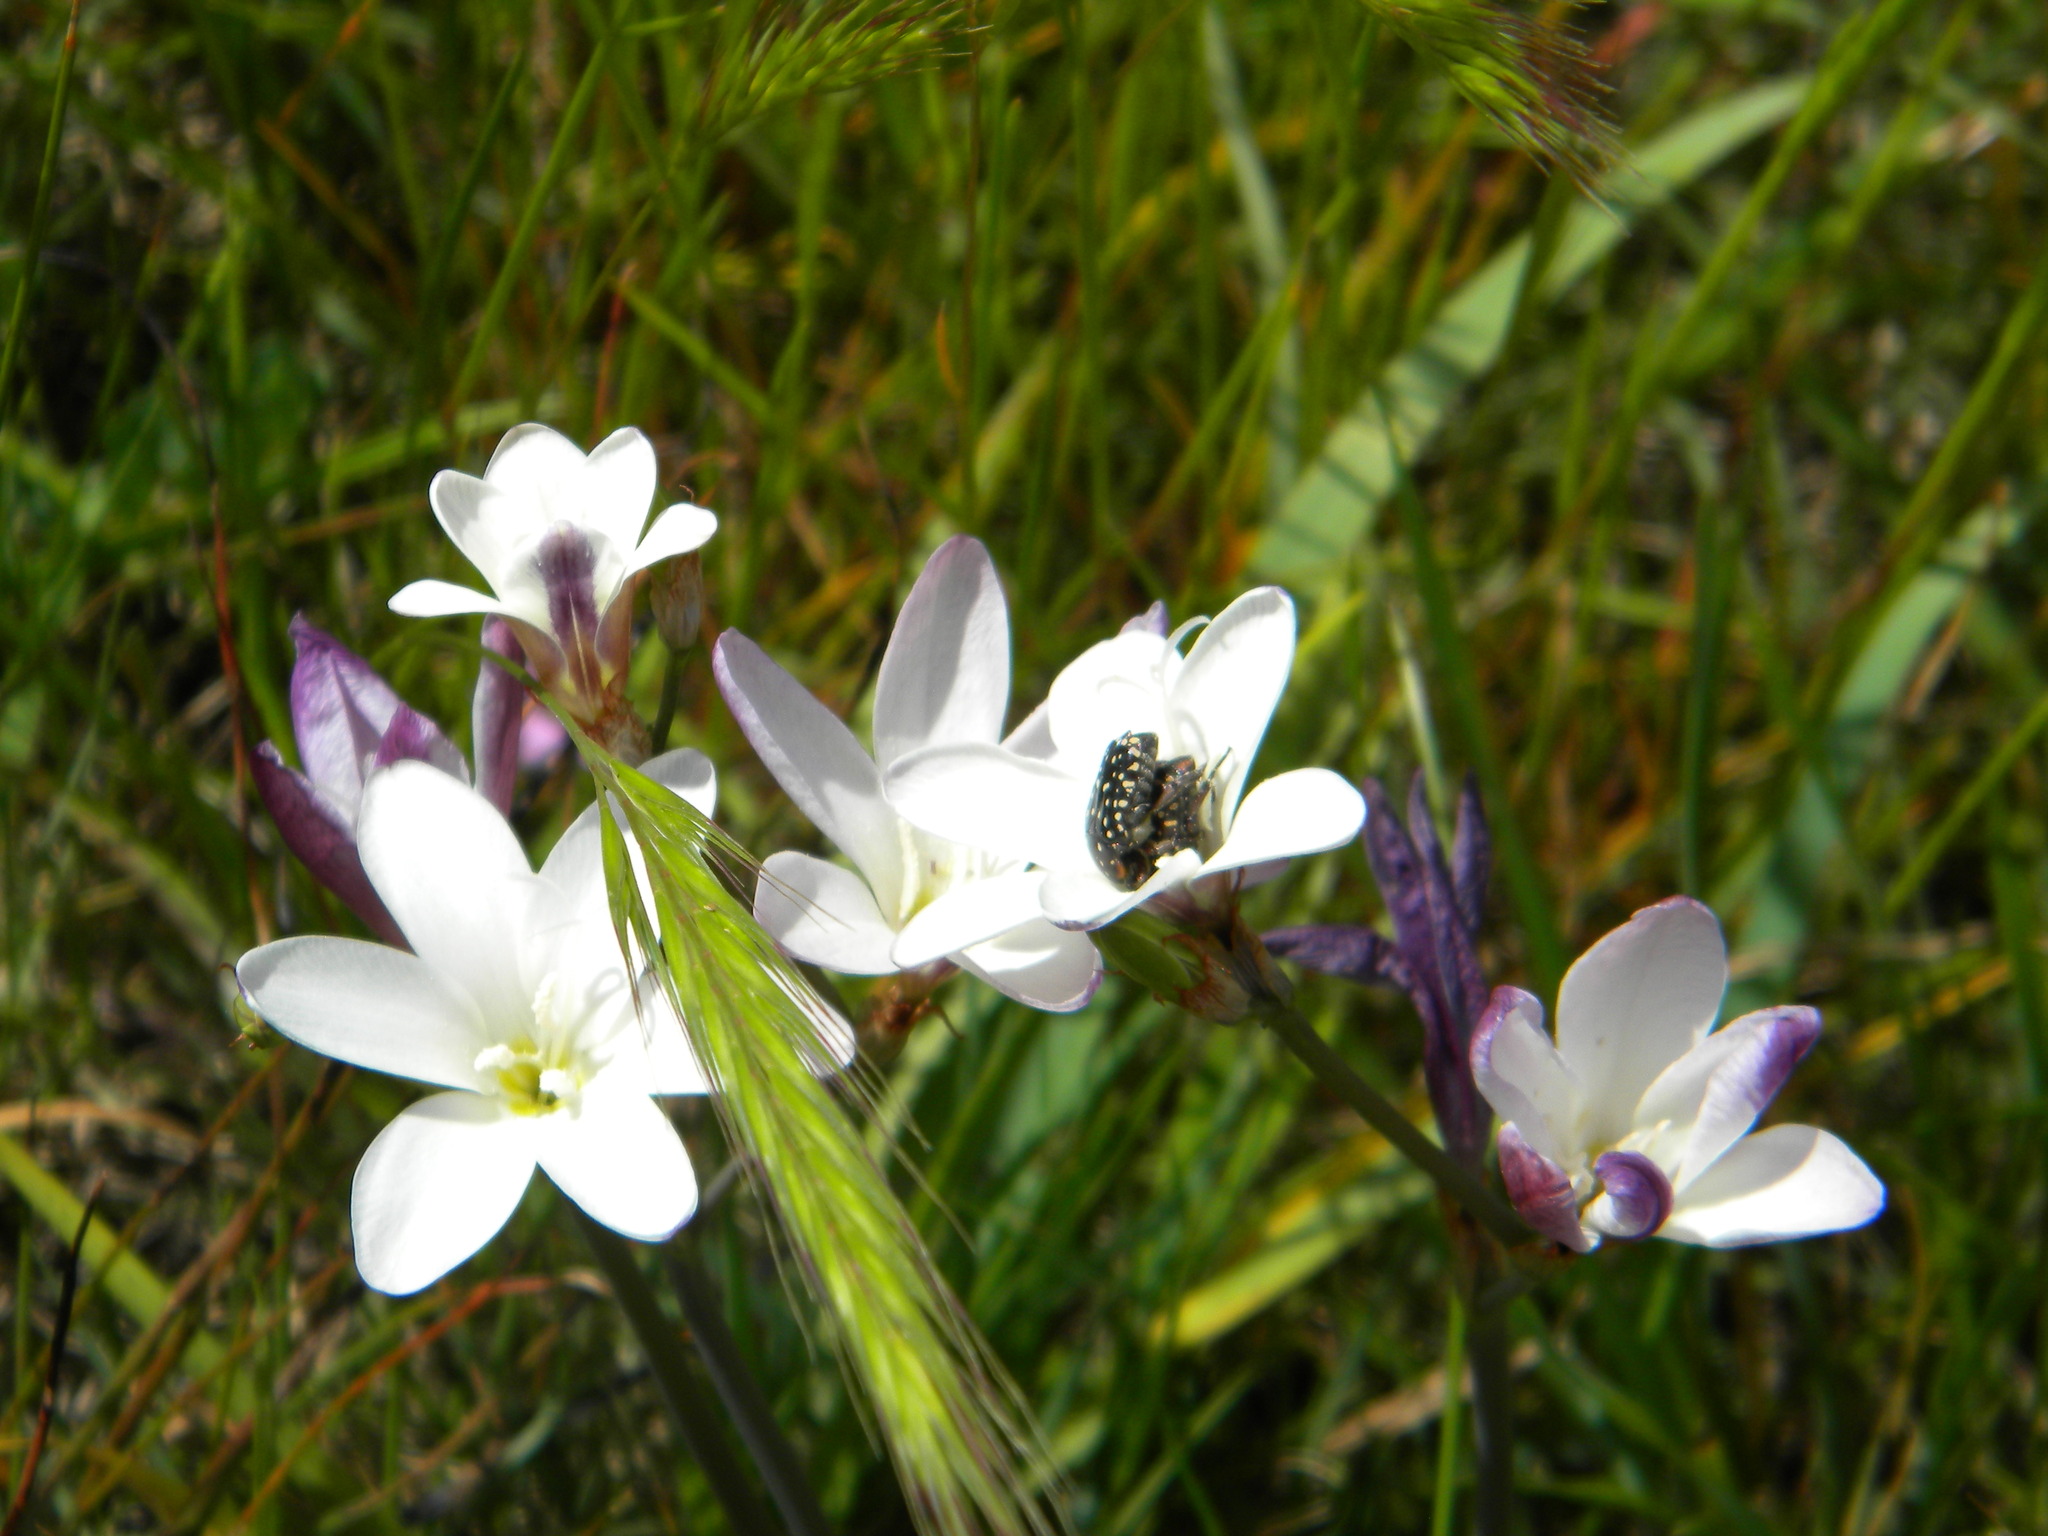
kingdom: Animalia
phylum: Arthropoda
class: Insecta
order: Coleoptera
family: Scarabaeidae
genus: Oxythyrea
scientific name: Oxythyrea
